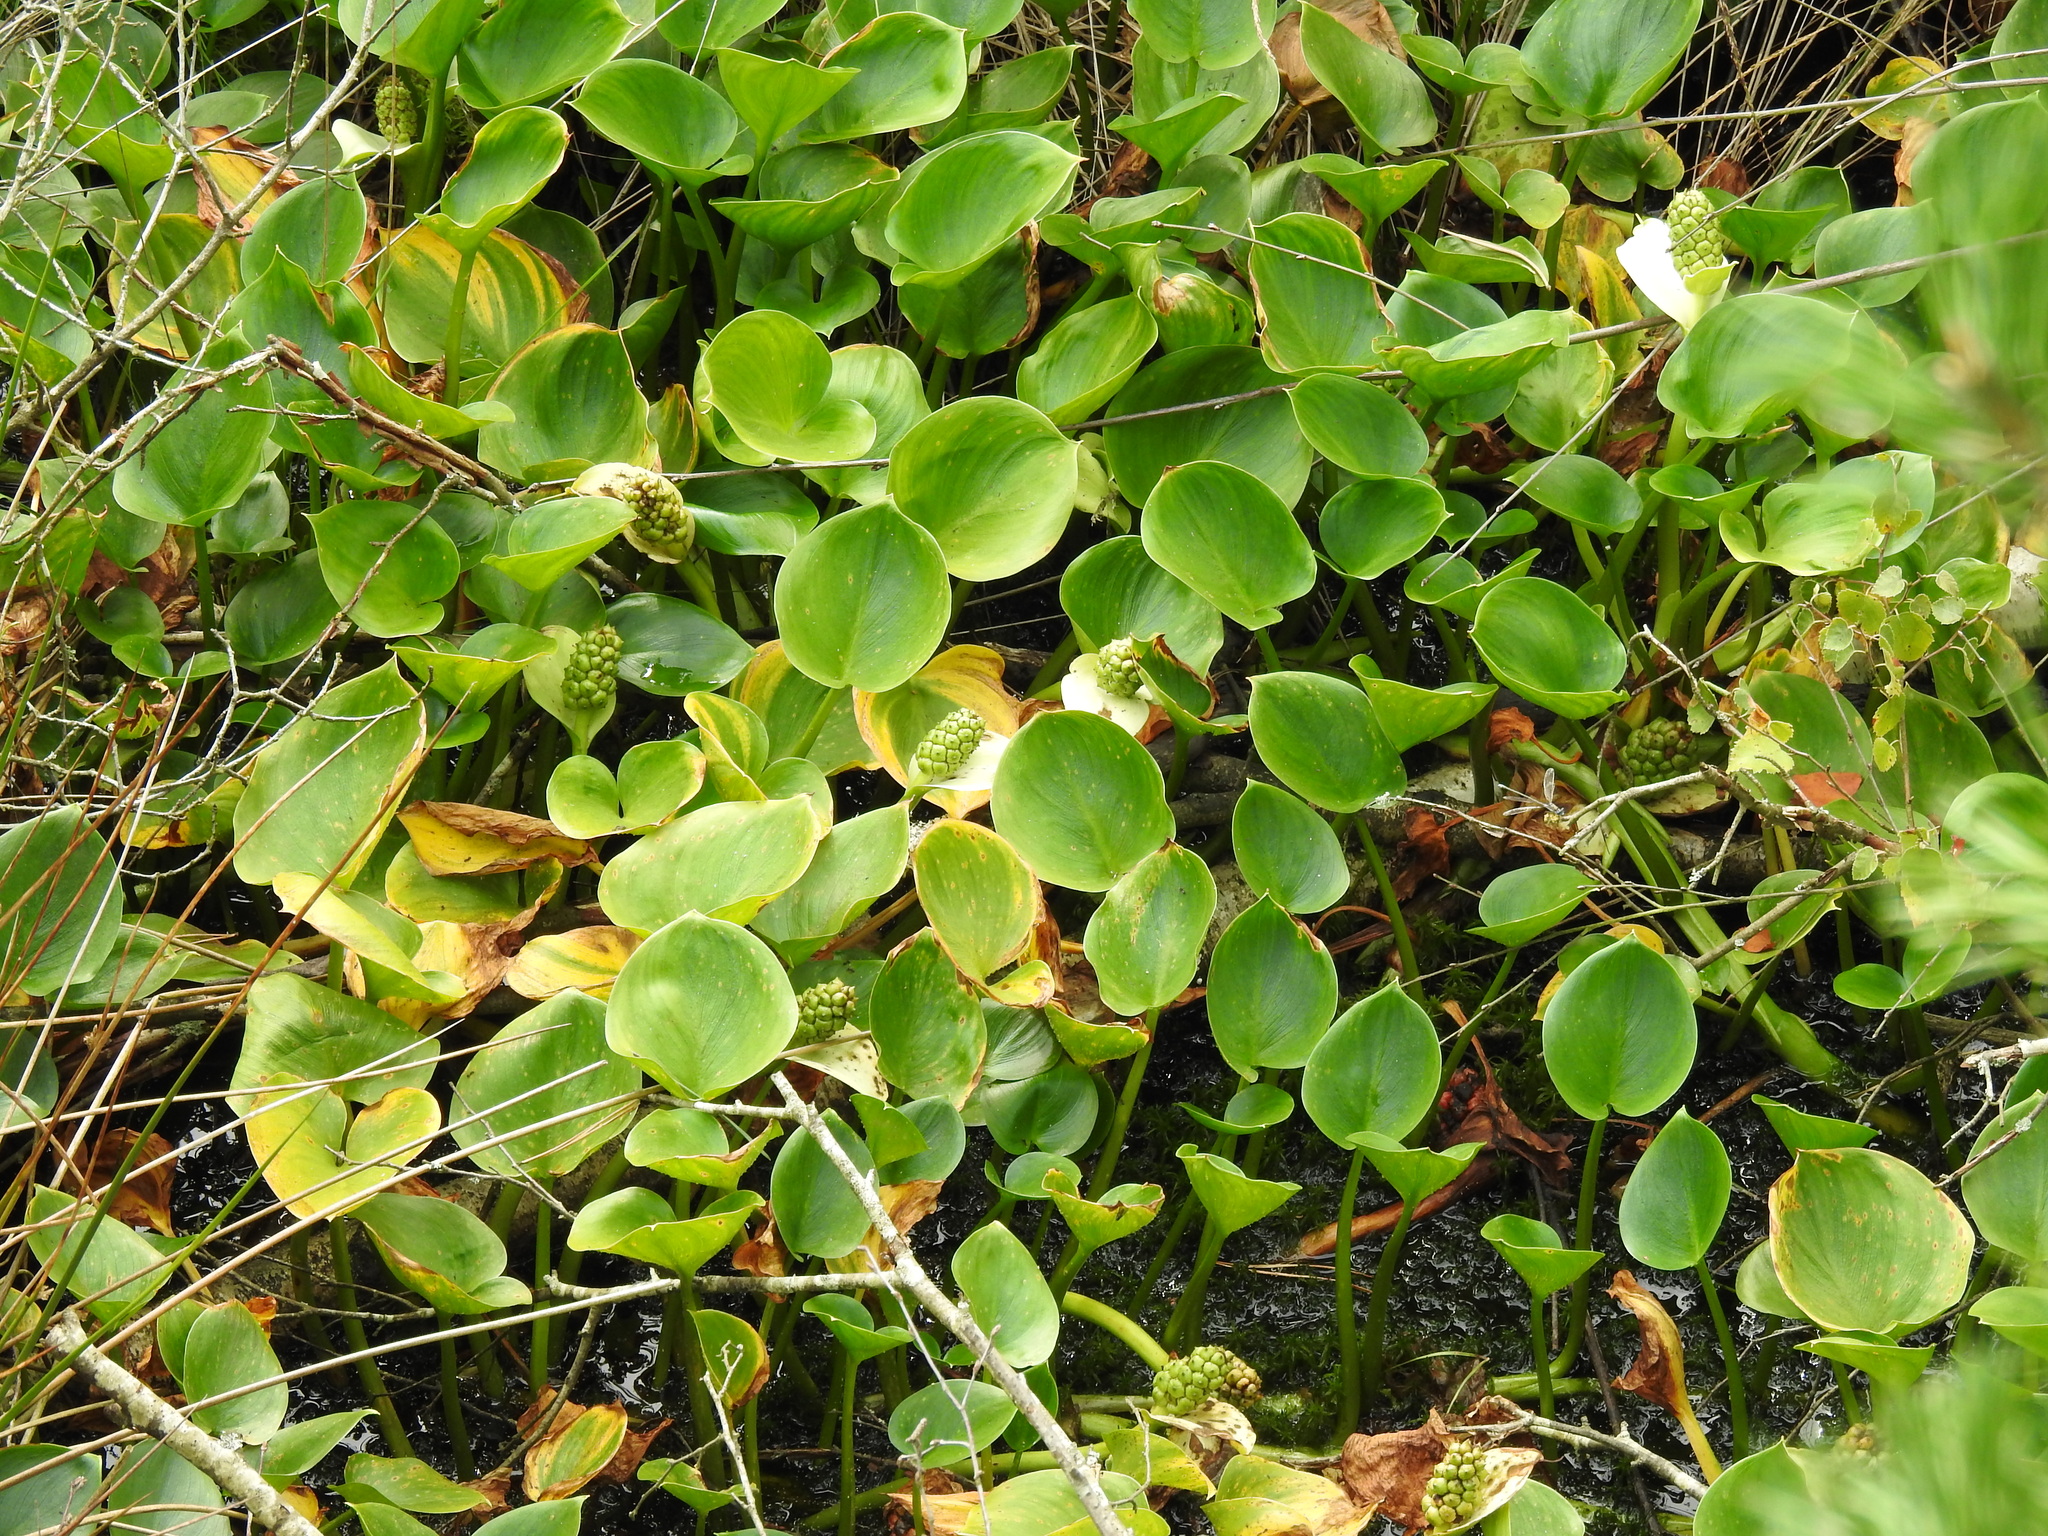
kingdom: Plantae
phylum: Tracheophyta
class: Liliopsida
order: Alismatales
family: Araceae
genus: Calla
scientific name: Calla palustris
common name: Bog arum
